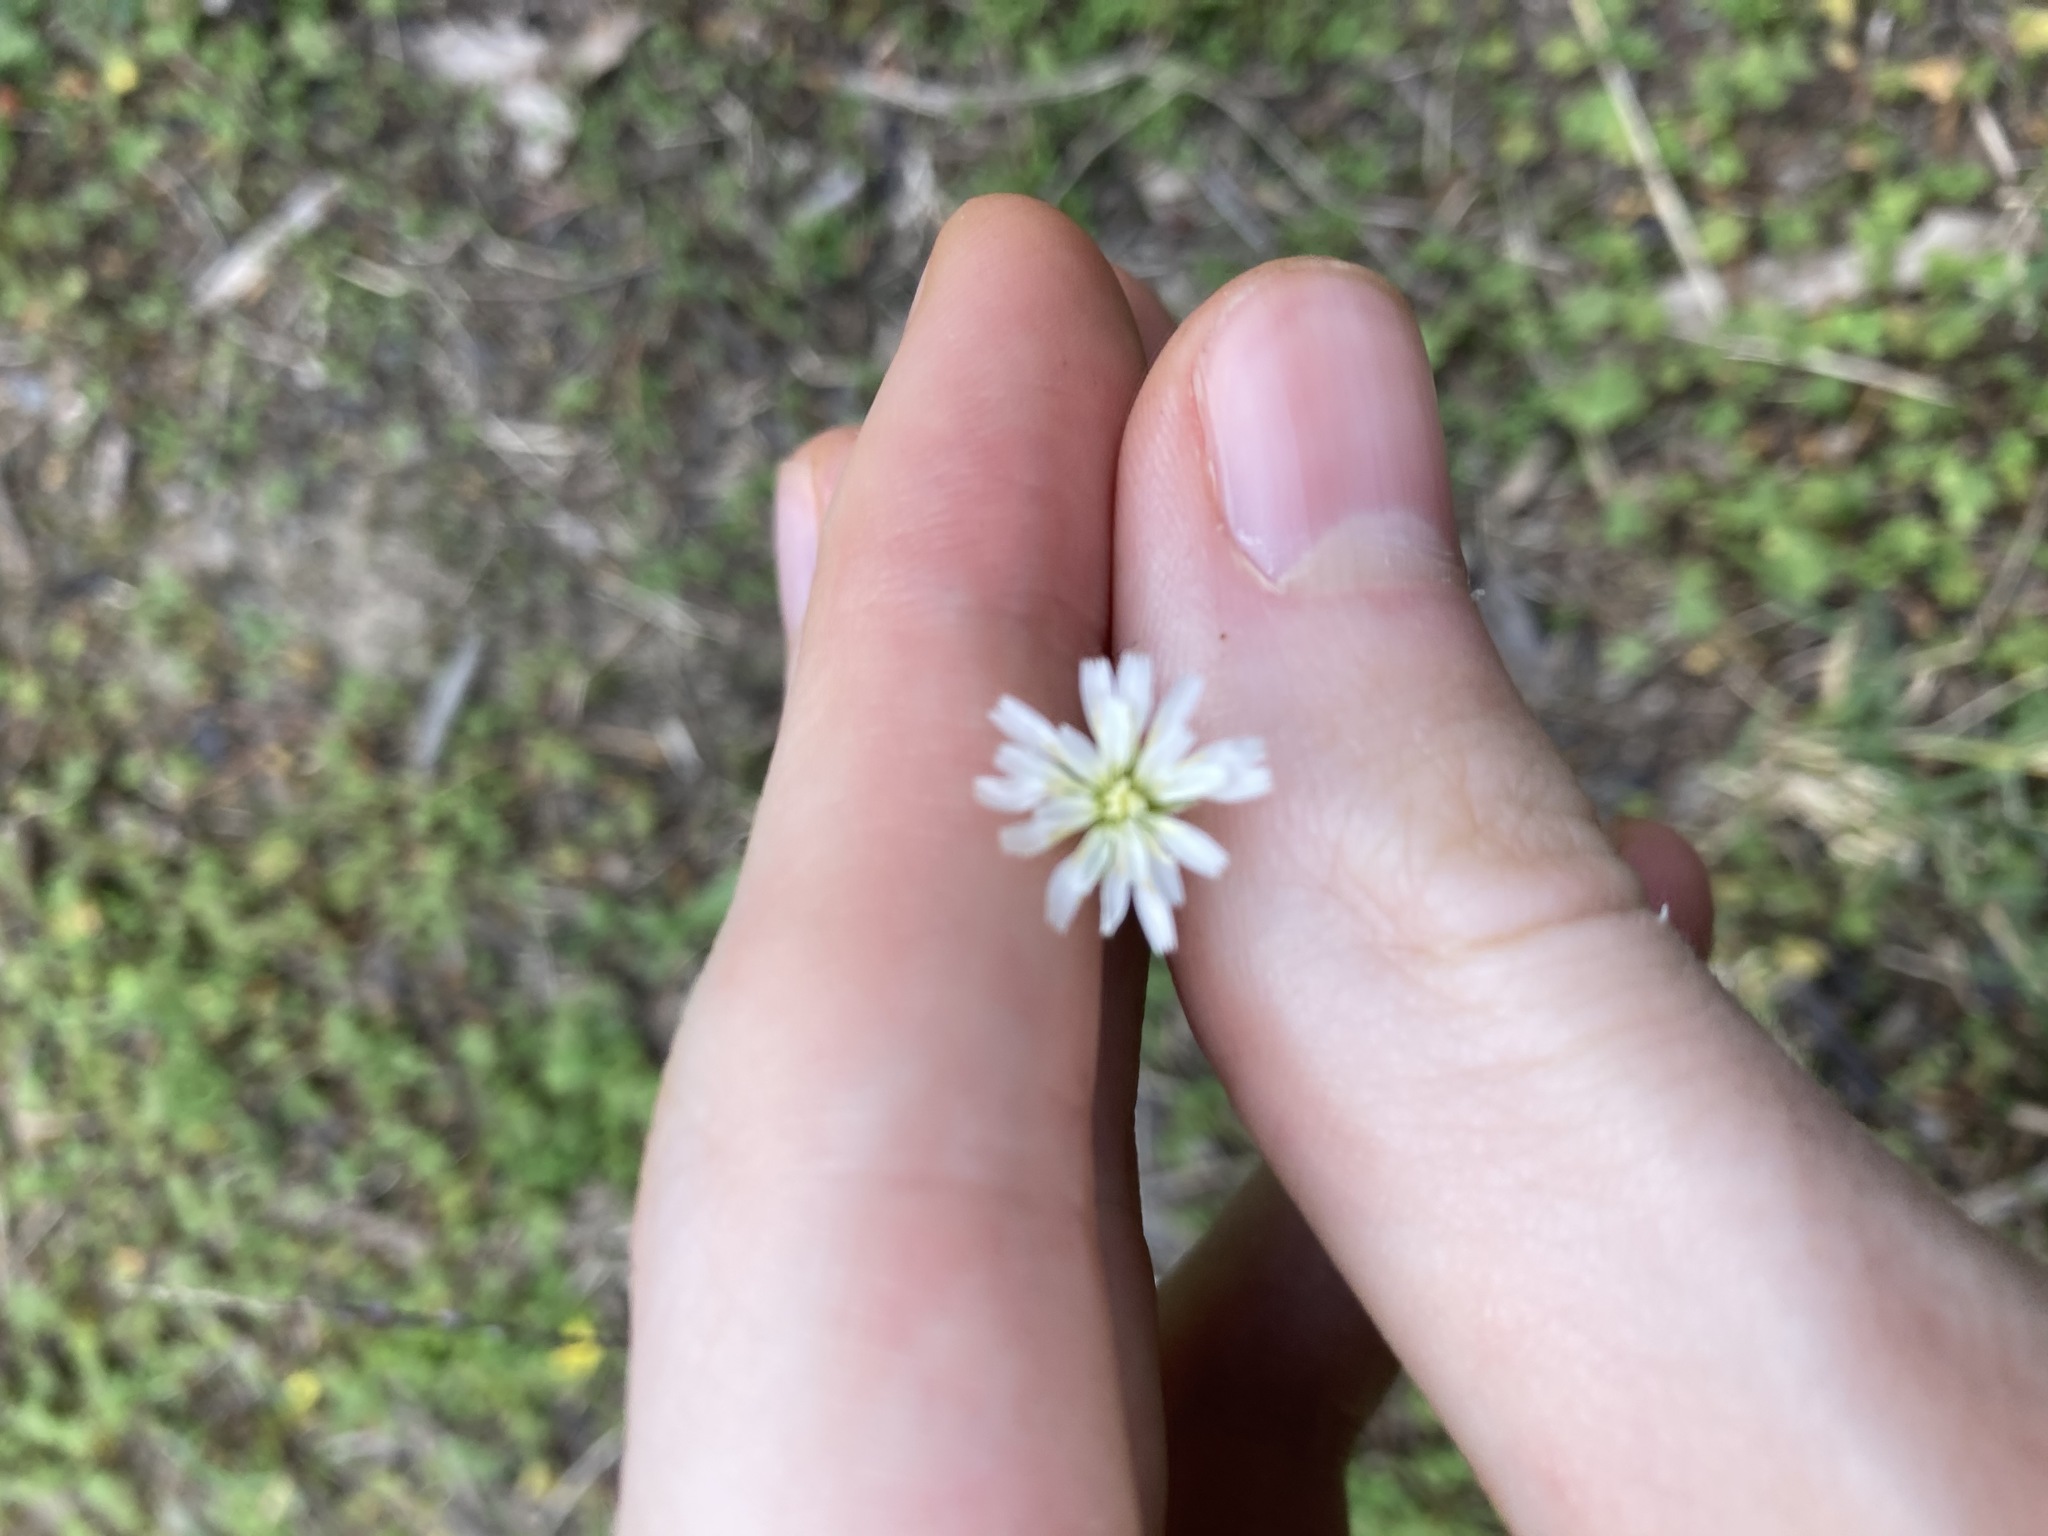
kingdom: Plantae
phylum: Tracheophyta
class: Magnoliopsida
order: Asterales
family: Asteraceae
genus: Hypochaeris
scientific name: Hypochaeris albiflora
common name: White flatweed
